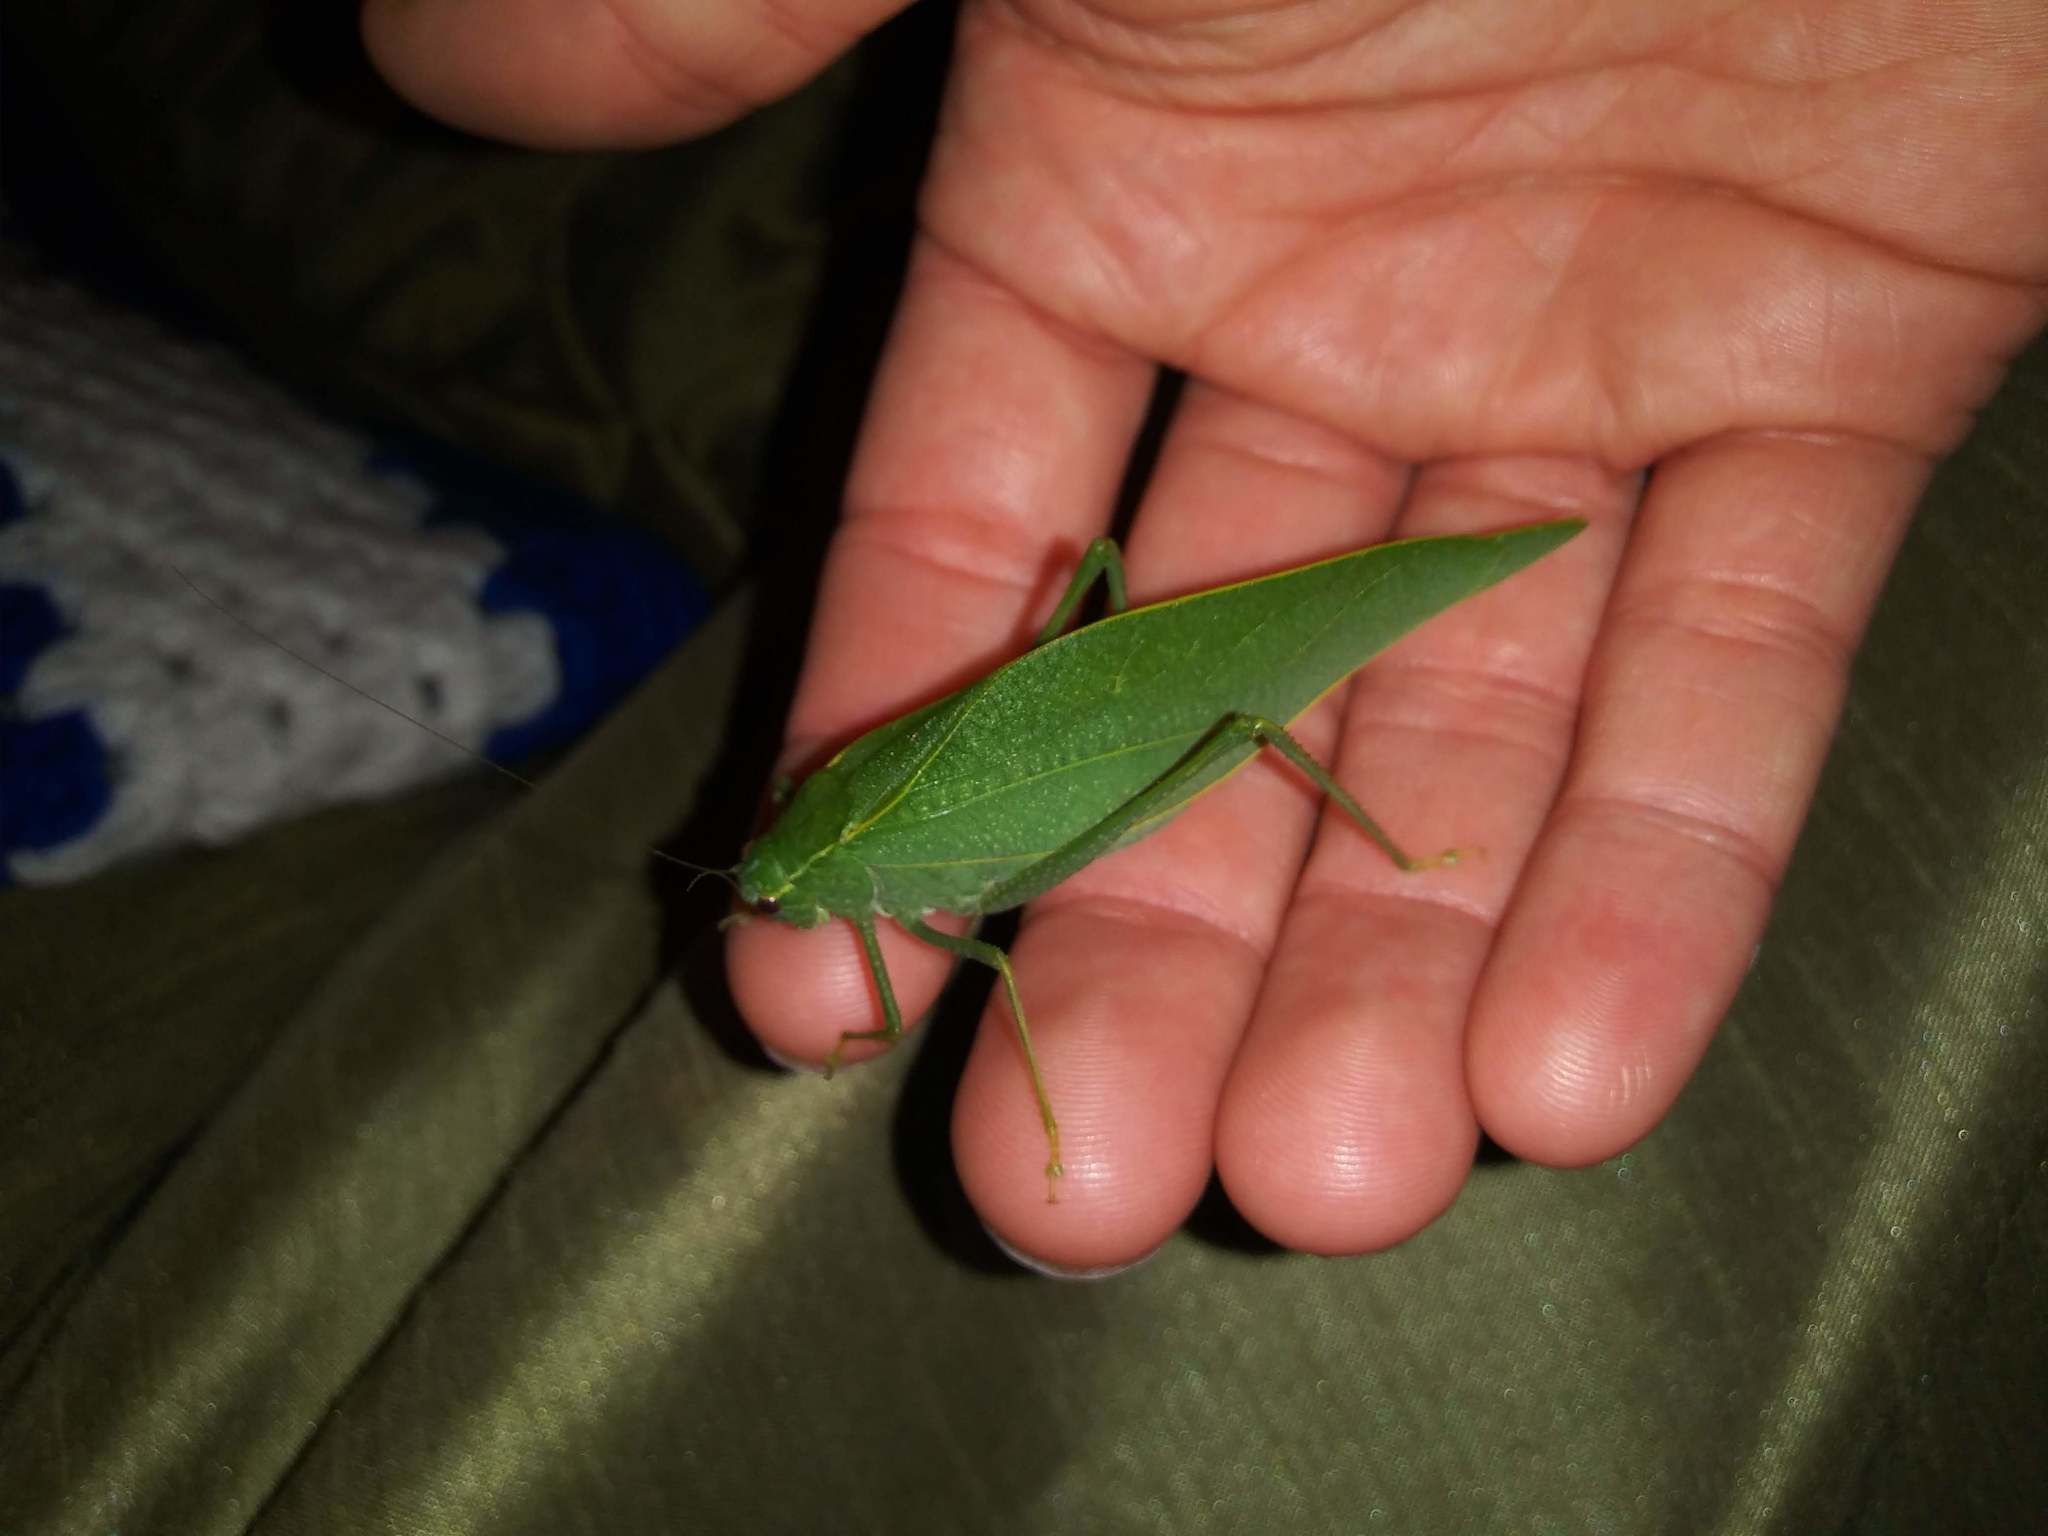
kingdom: Animalia
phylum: Arthropoda
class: Insecta
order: Orthoptera
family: Tettigoniidae
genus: Microcentrum
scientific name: Microcentrum rhombifolium
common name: Broad-winged katydid
